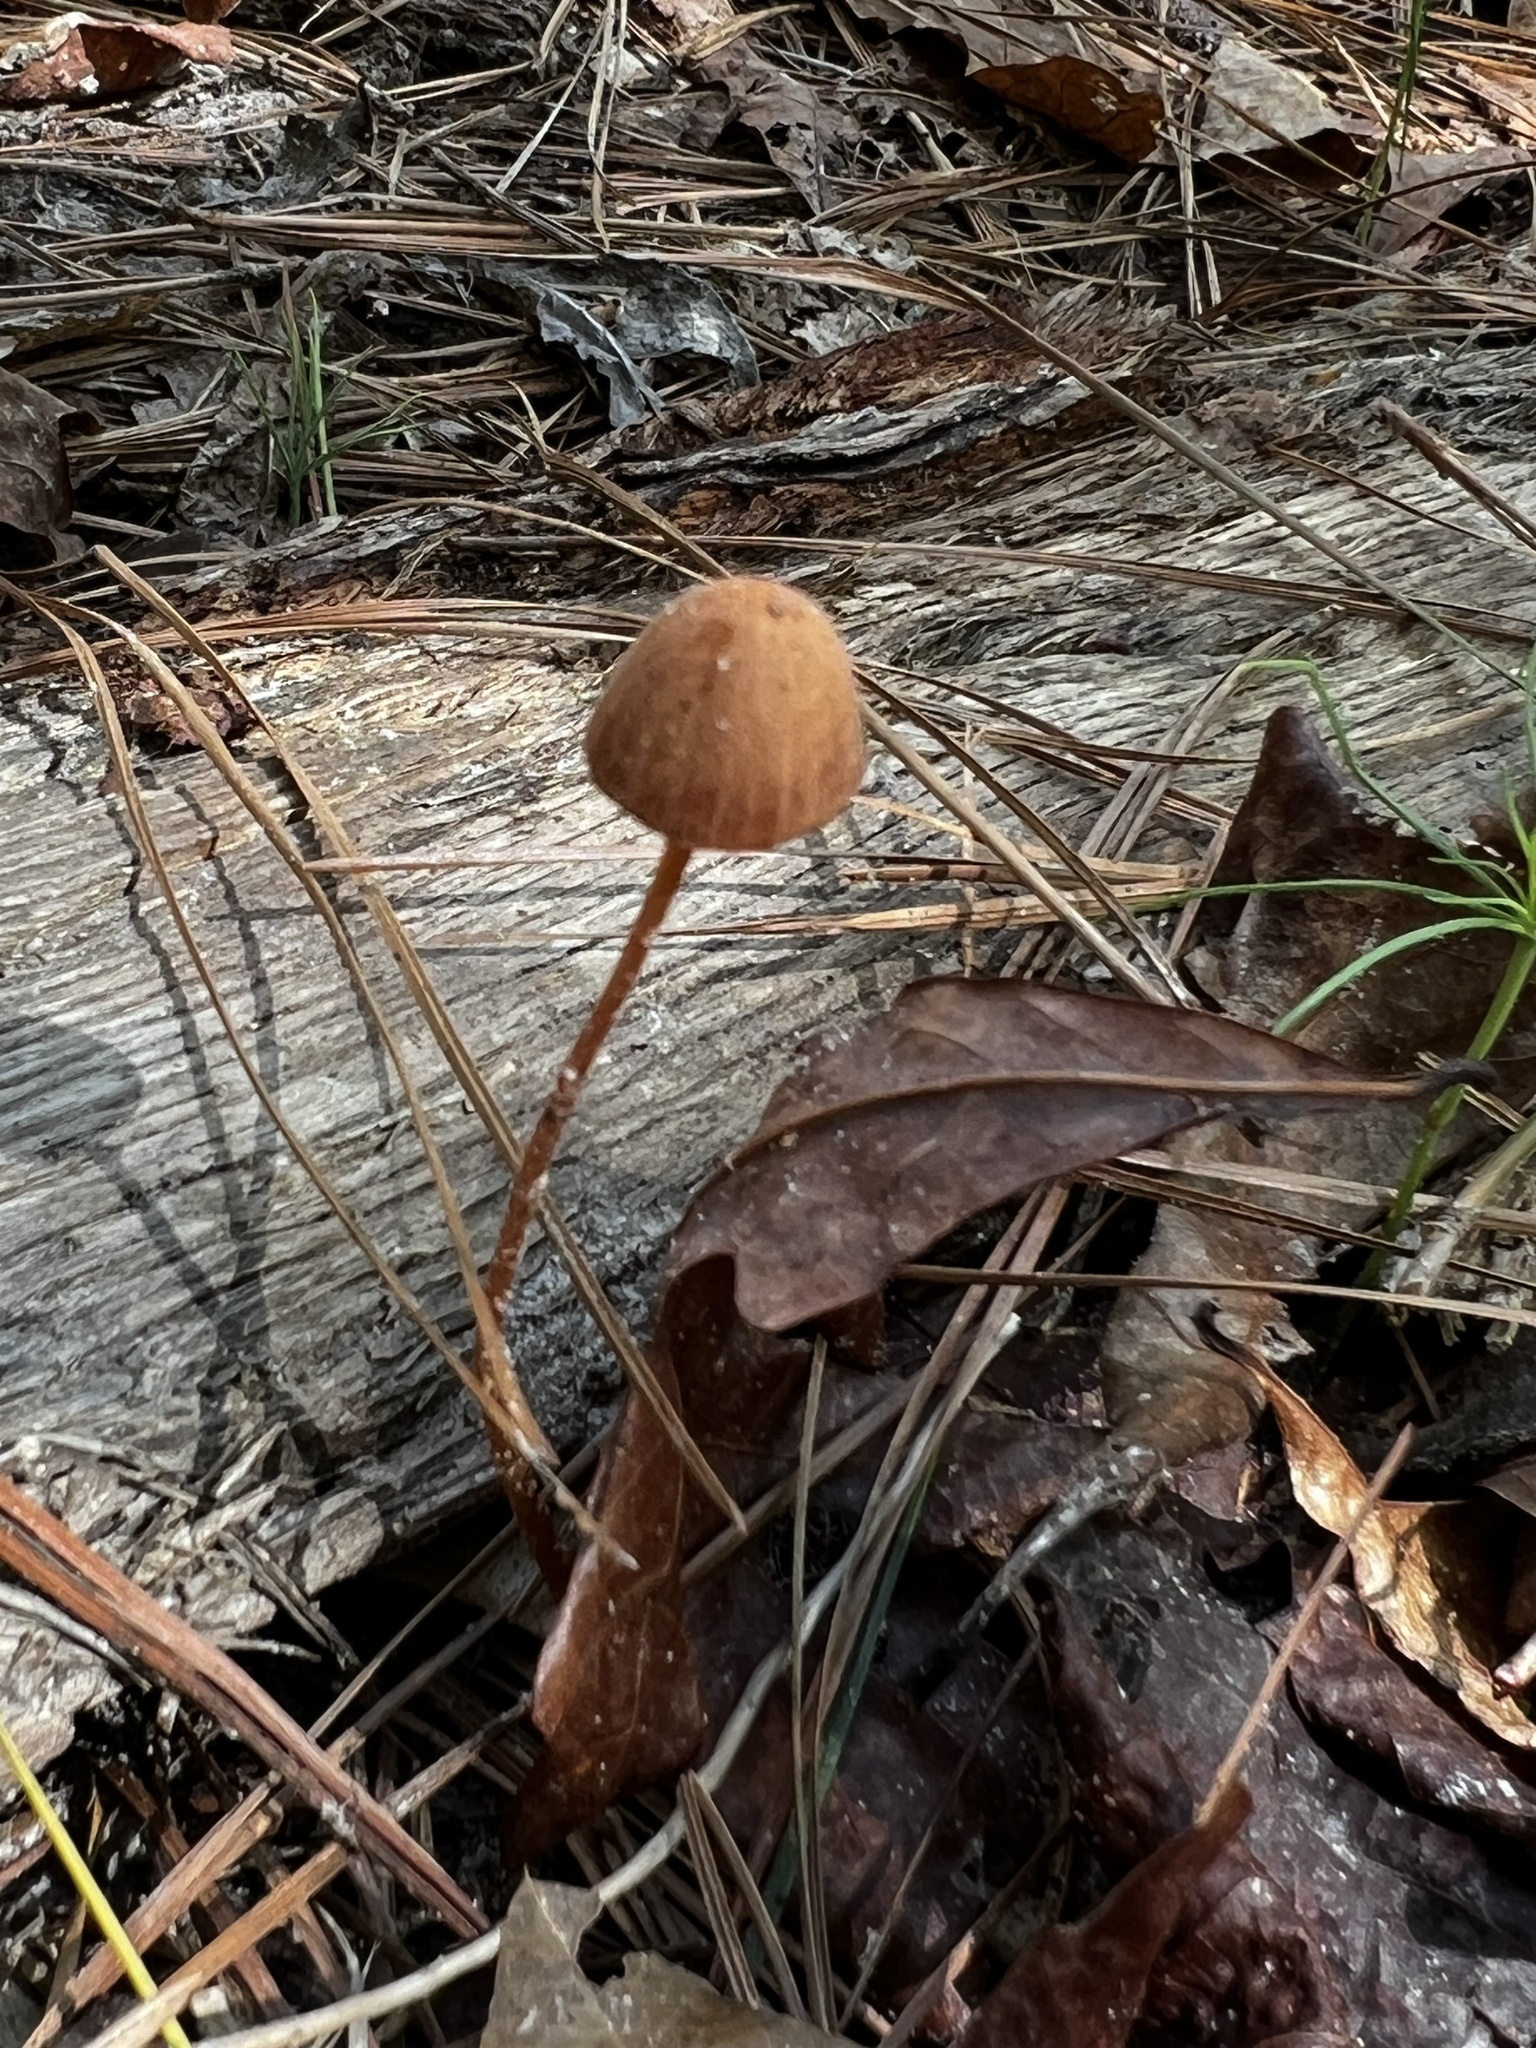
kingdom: Fungi
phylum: Basidiomycota
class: Agaricomycetes
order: Agaricales
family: Bolbitiaceae
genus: Conocybe
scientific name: Conocybe tenera
